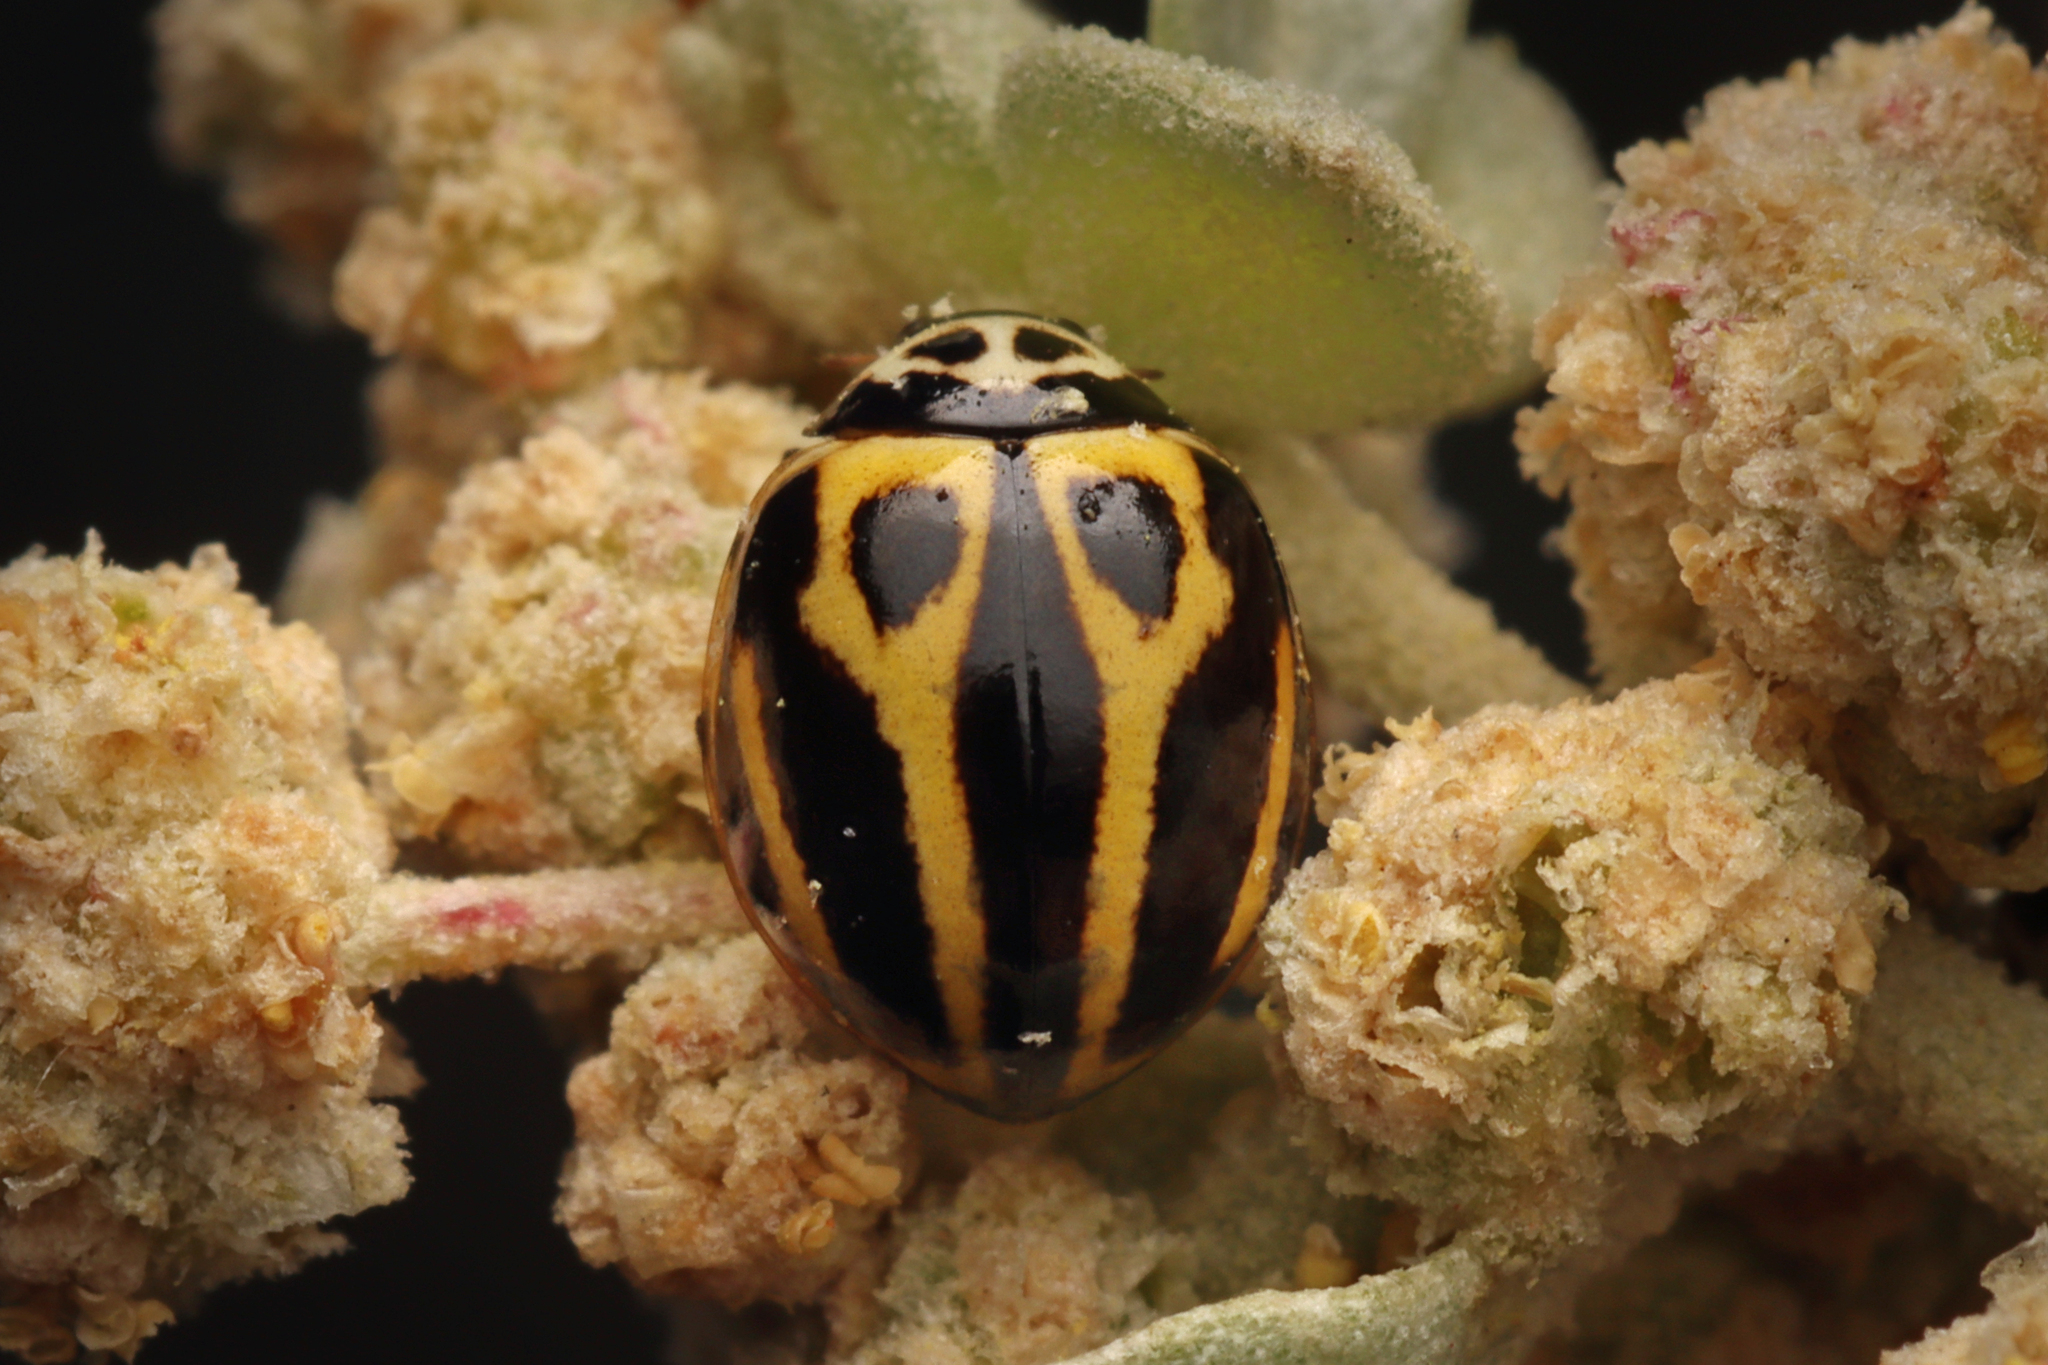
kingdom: Animalia
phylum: Arthropoda
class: Insecta
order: Coleoptera
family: Coccinellidae
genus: Micraspis
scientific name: Micraspis
